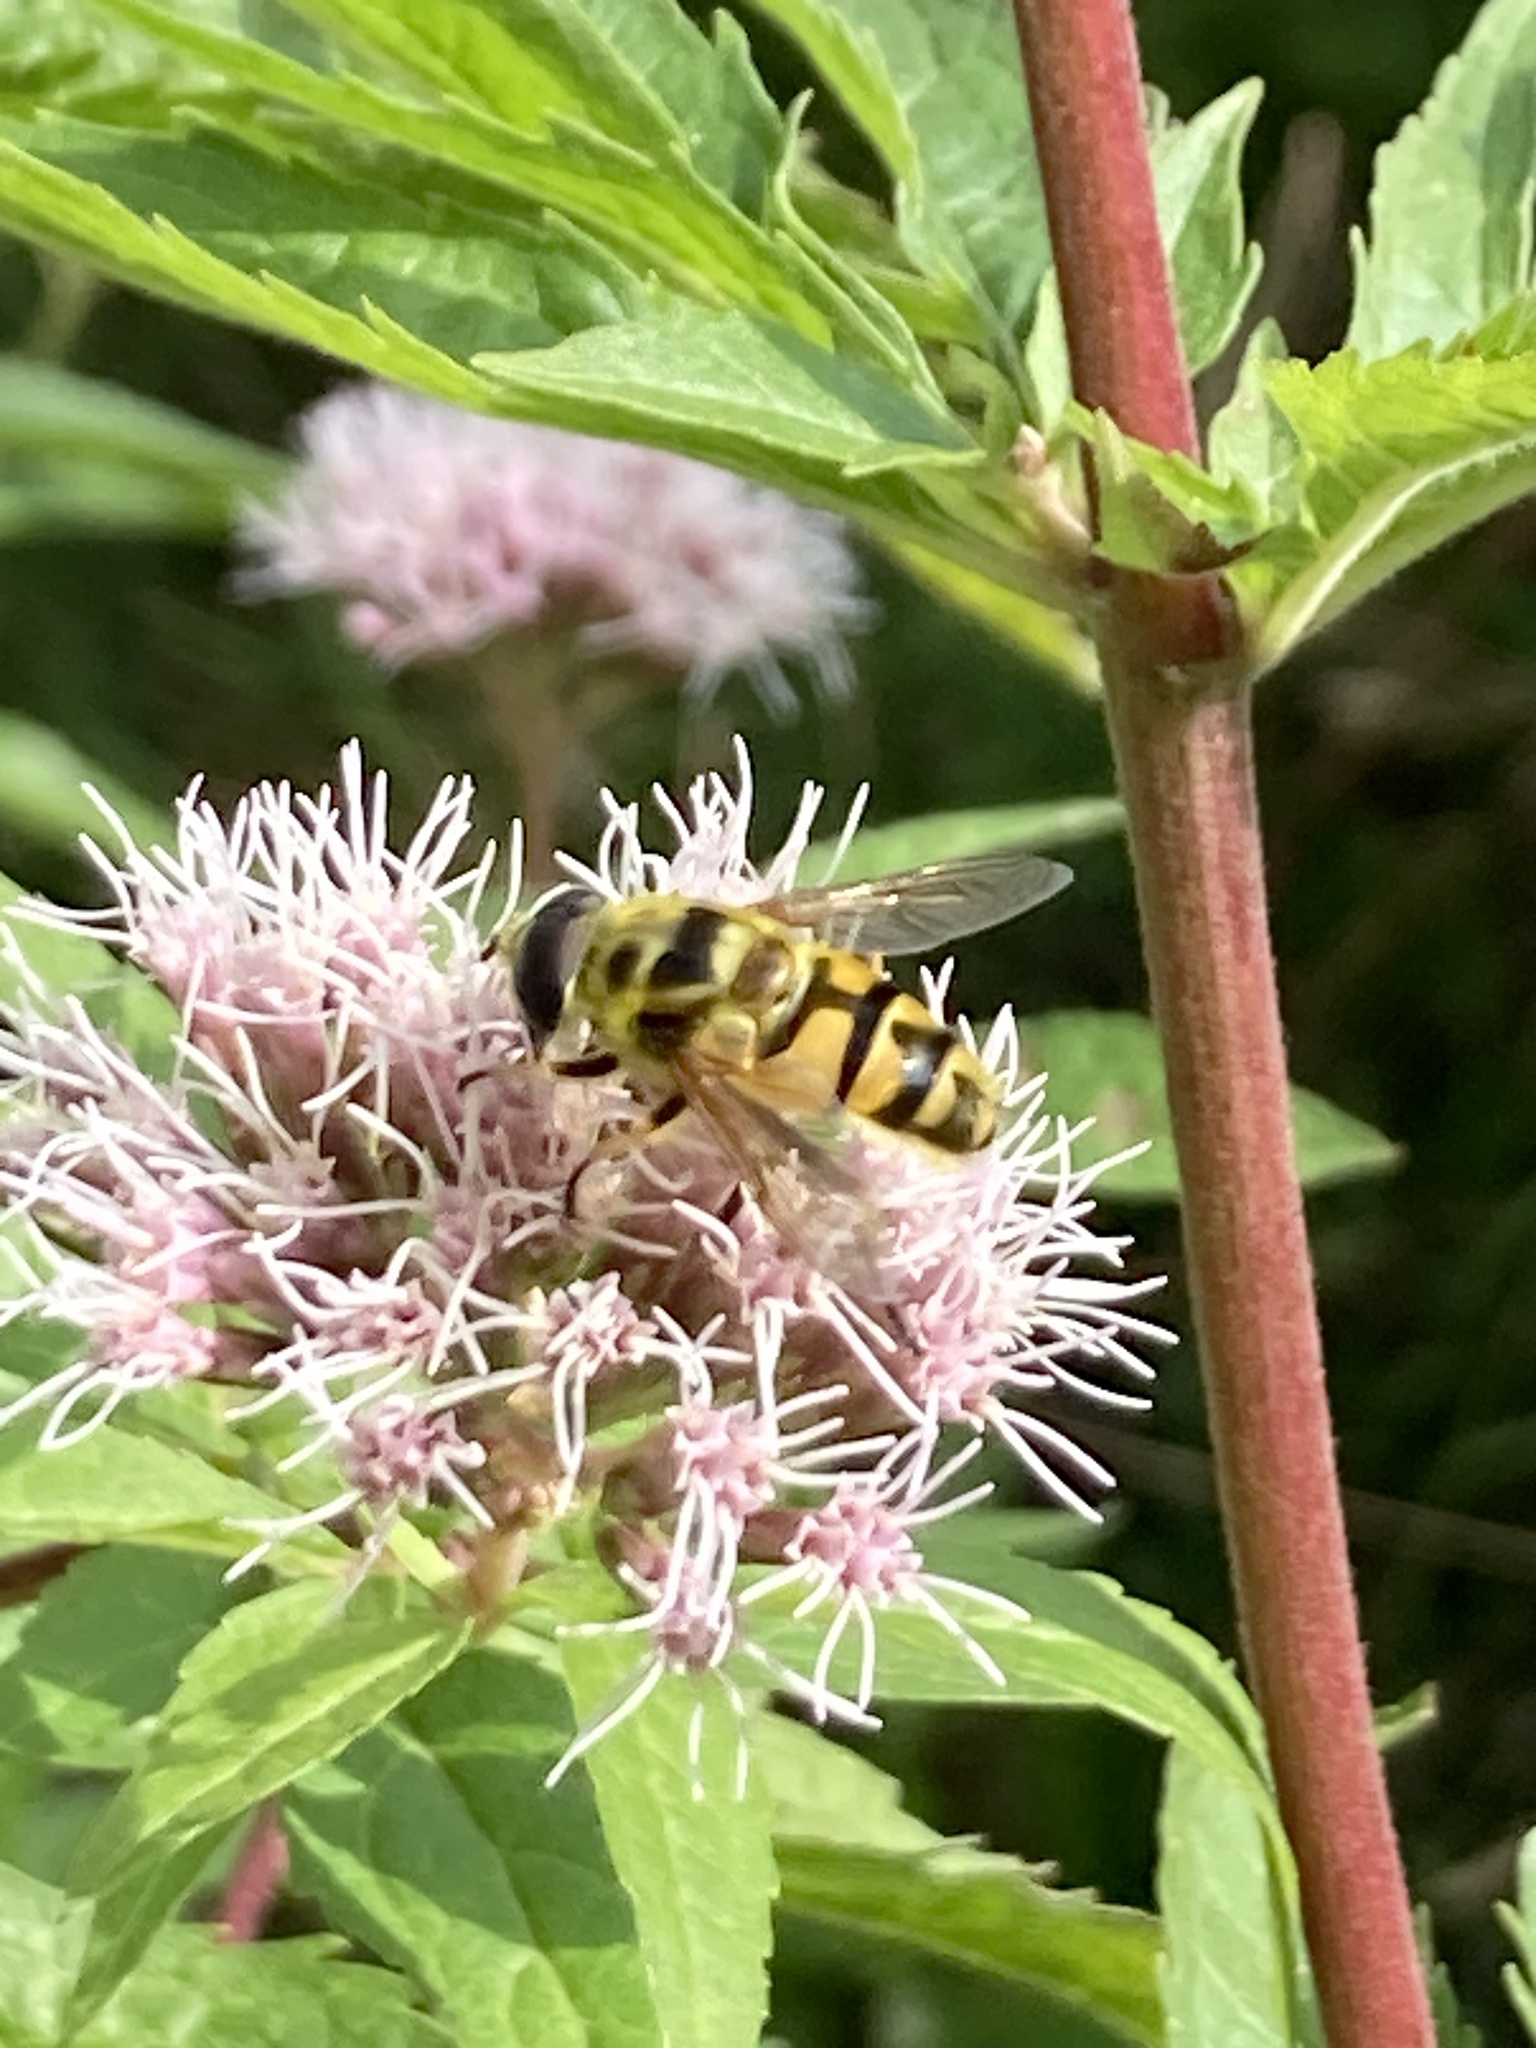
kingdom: Animalia
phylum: Arthropoda
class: Insecta
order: Diptera
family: Syrphidae
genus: Myathropa
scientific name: Myathropa florea
